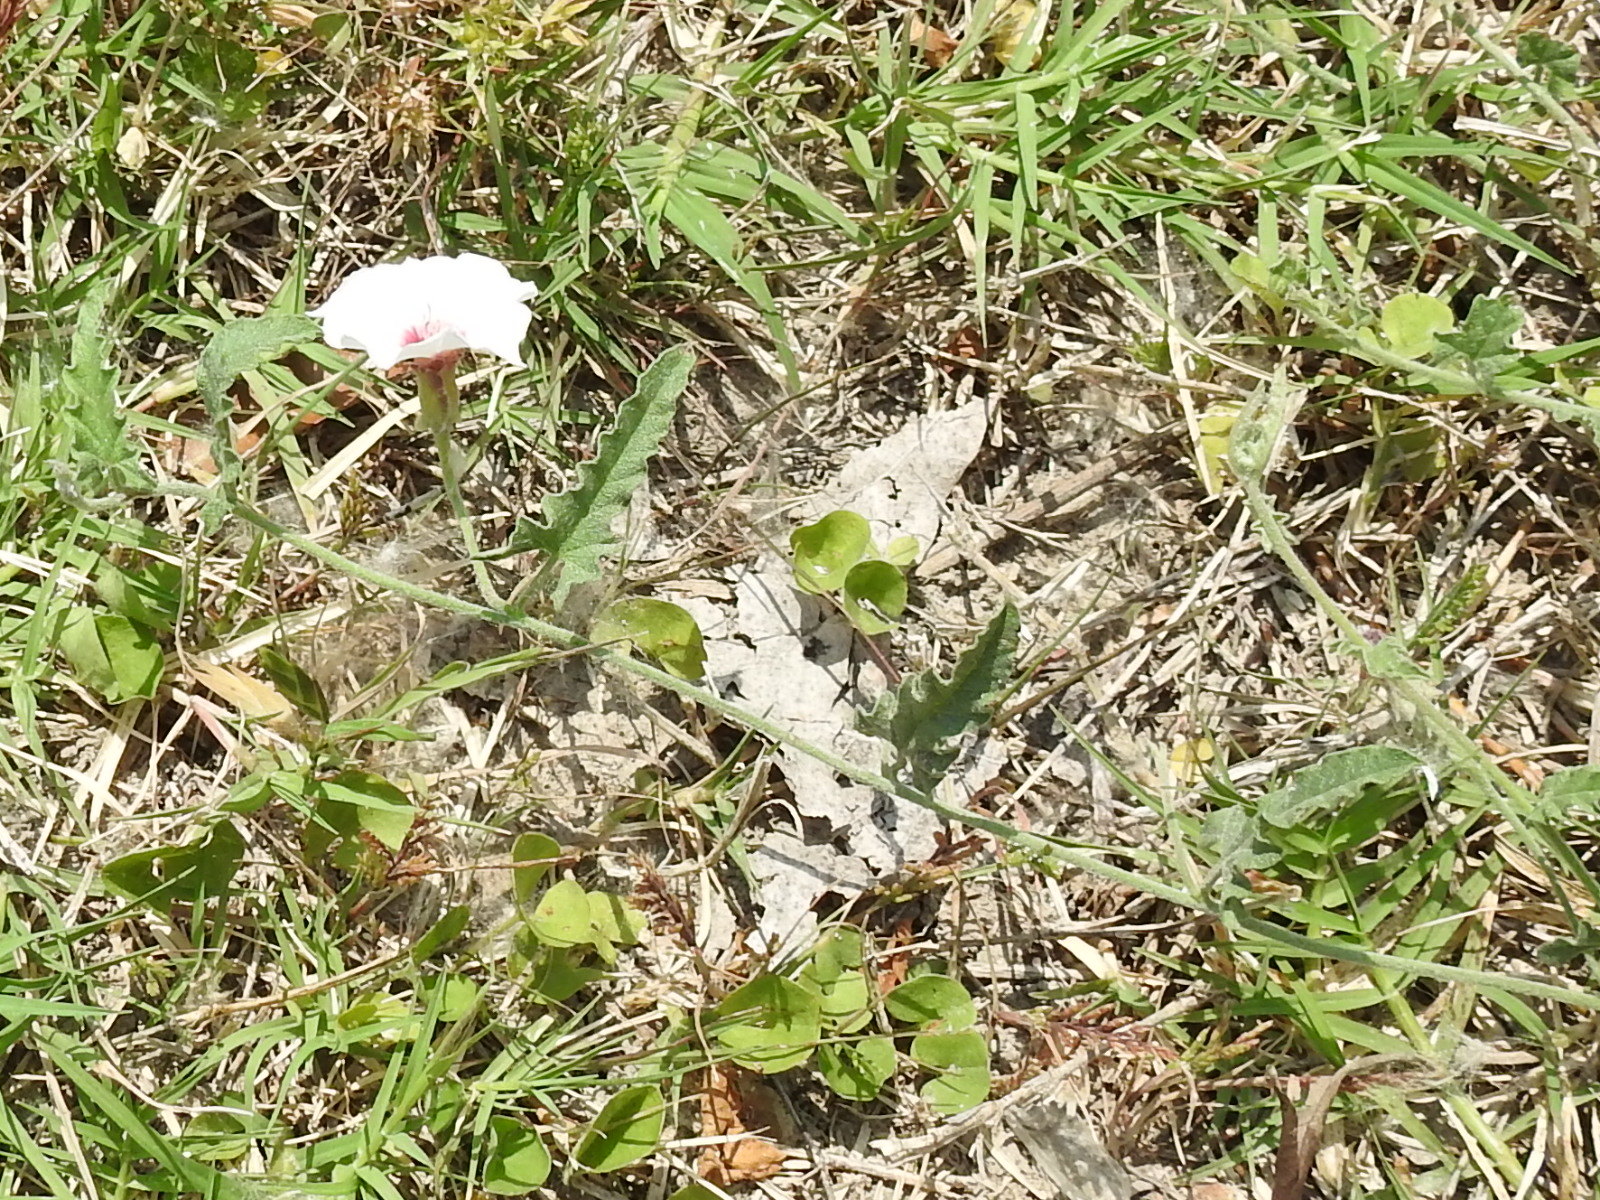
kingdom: Plantae
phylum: Tracheophyta
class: Magnoliopsida
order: Solanales
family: Convolvulaceae
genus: Convolvulus
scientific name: Convolvulus equitans
